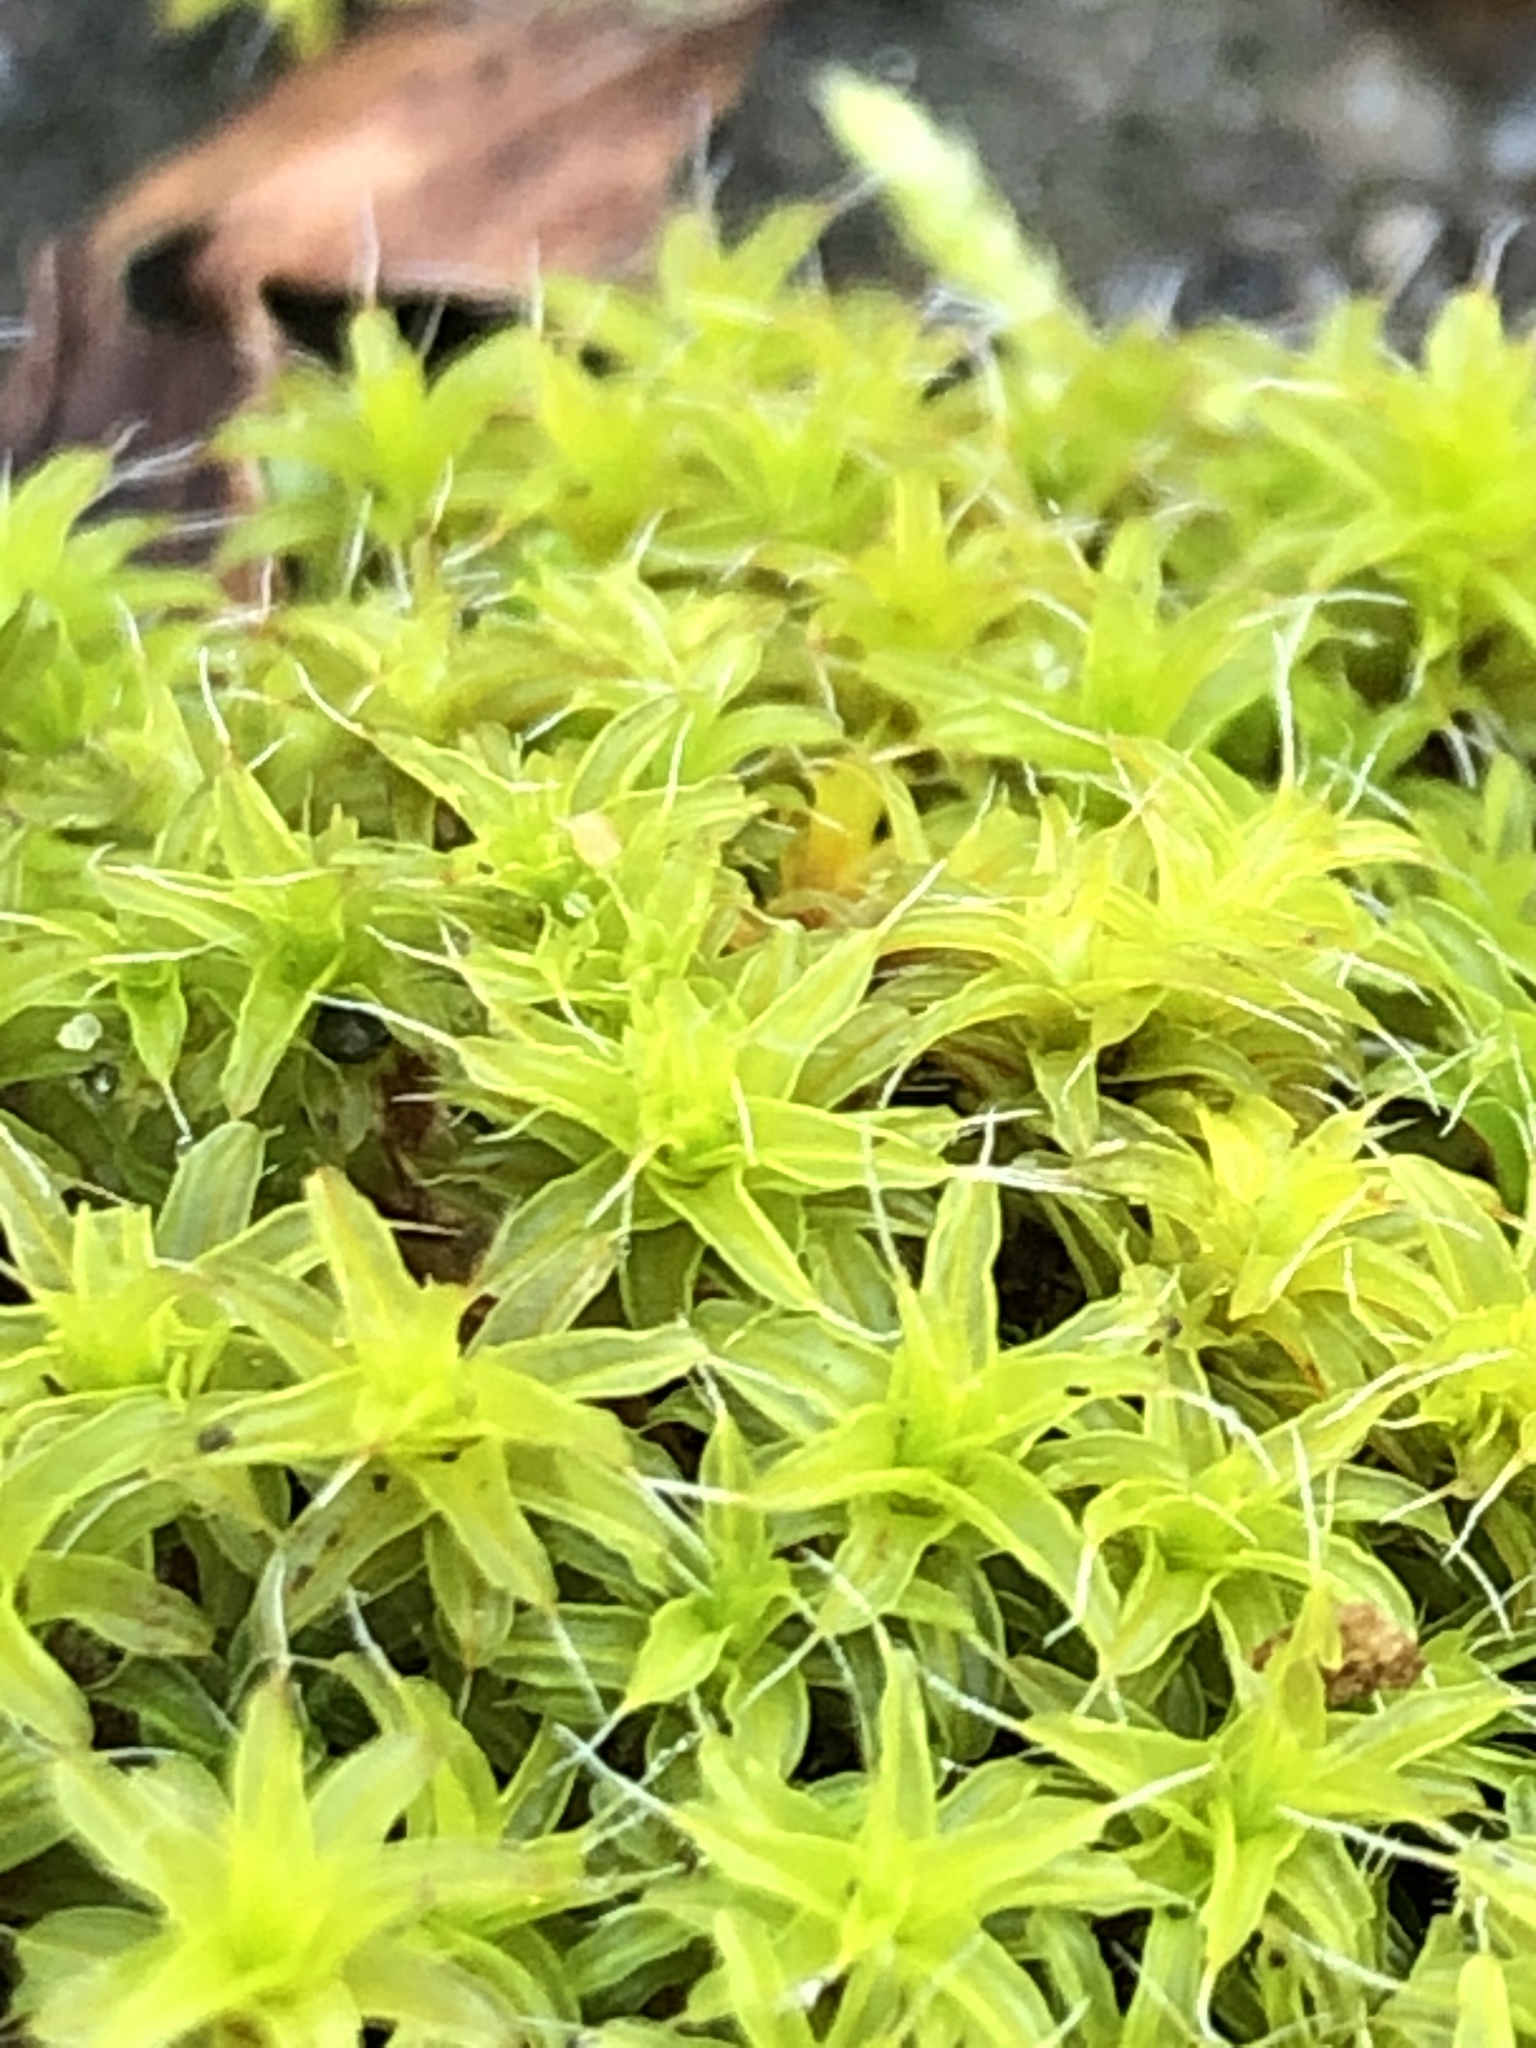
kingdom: Plantae
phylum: Bryophyta
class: Bryopsida
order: Pottiales
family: Pottiaceae
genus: Syntrichia
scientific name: Syntrichia ruralis
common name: Sidewalk screw moss
